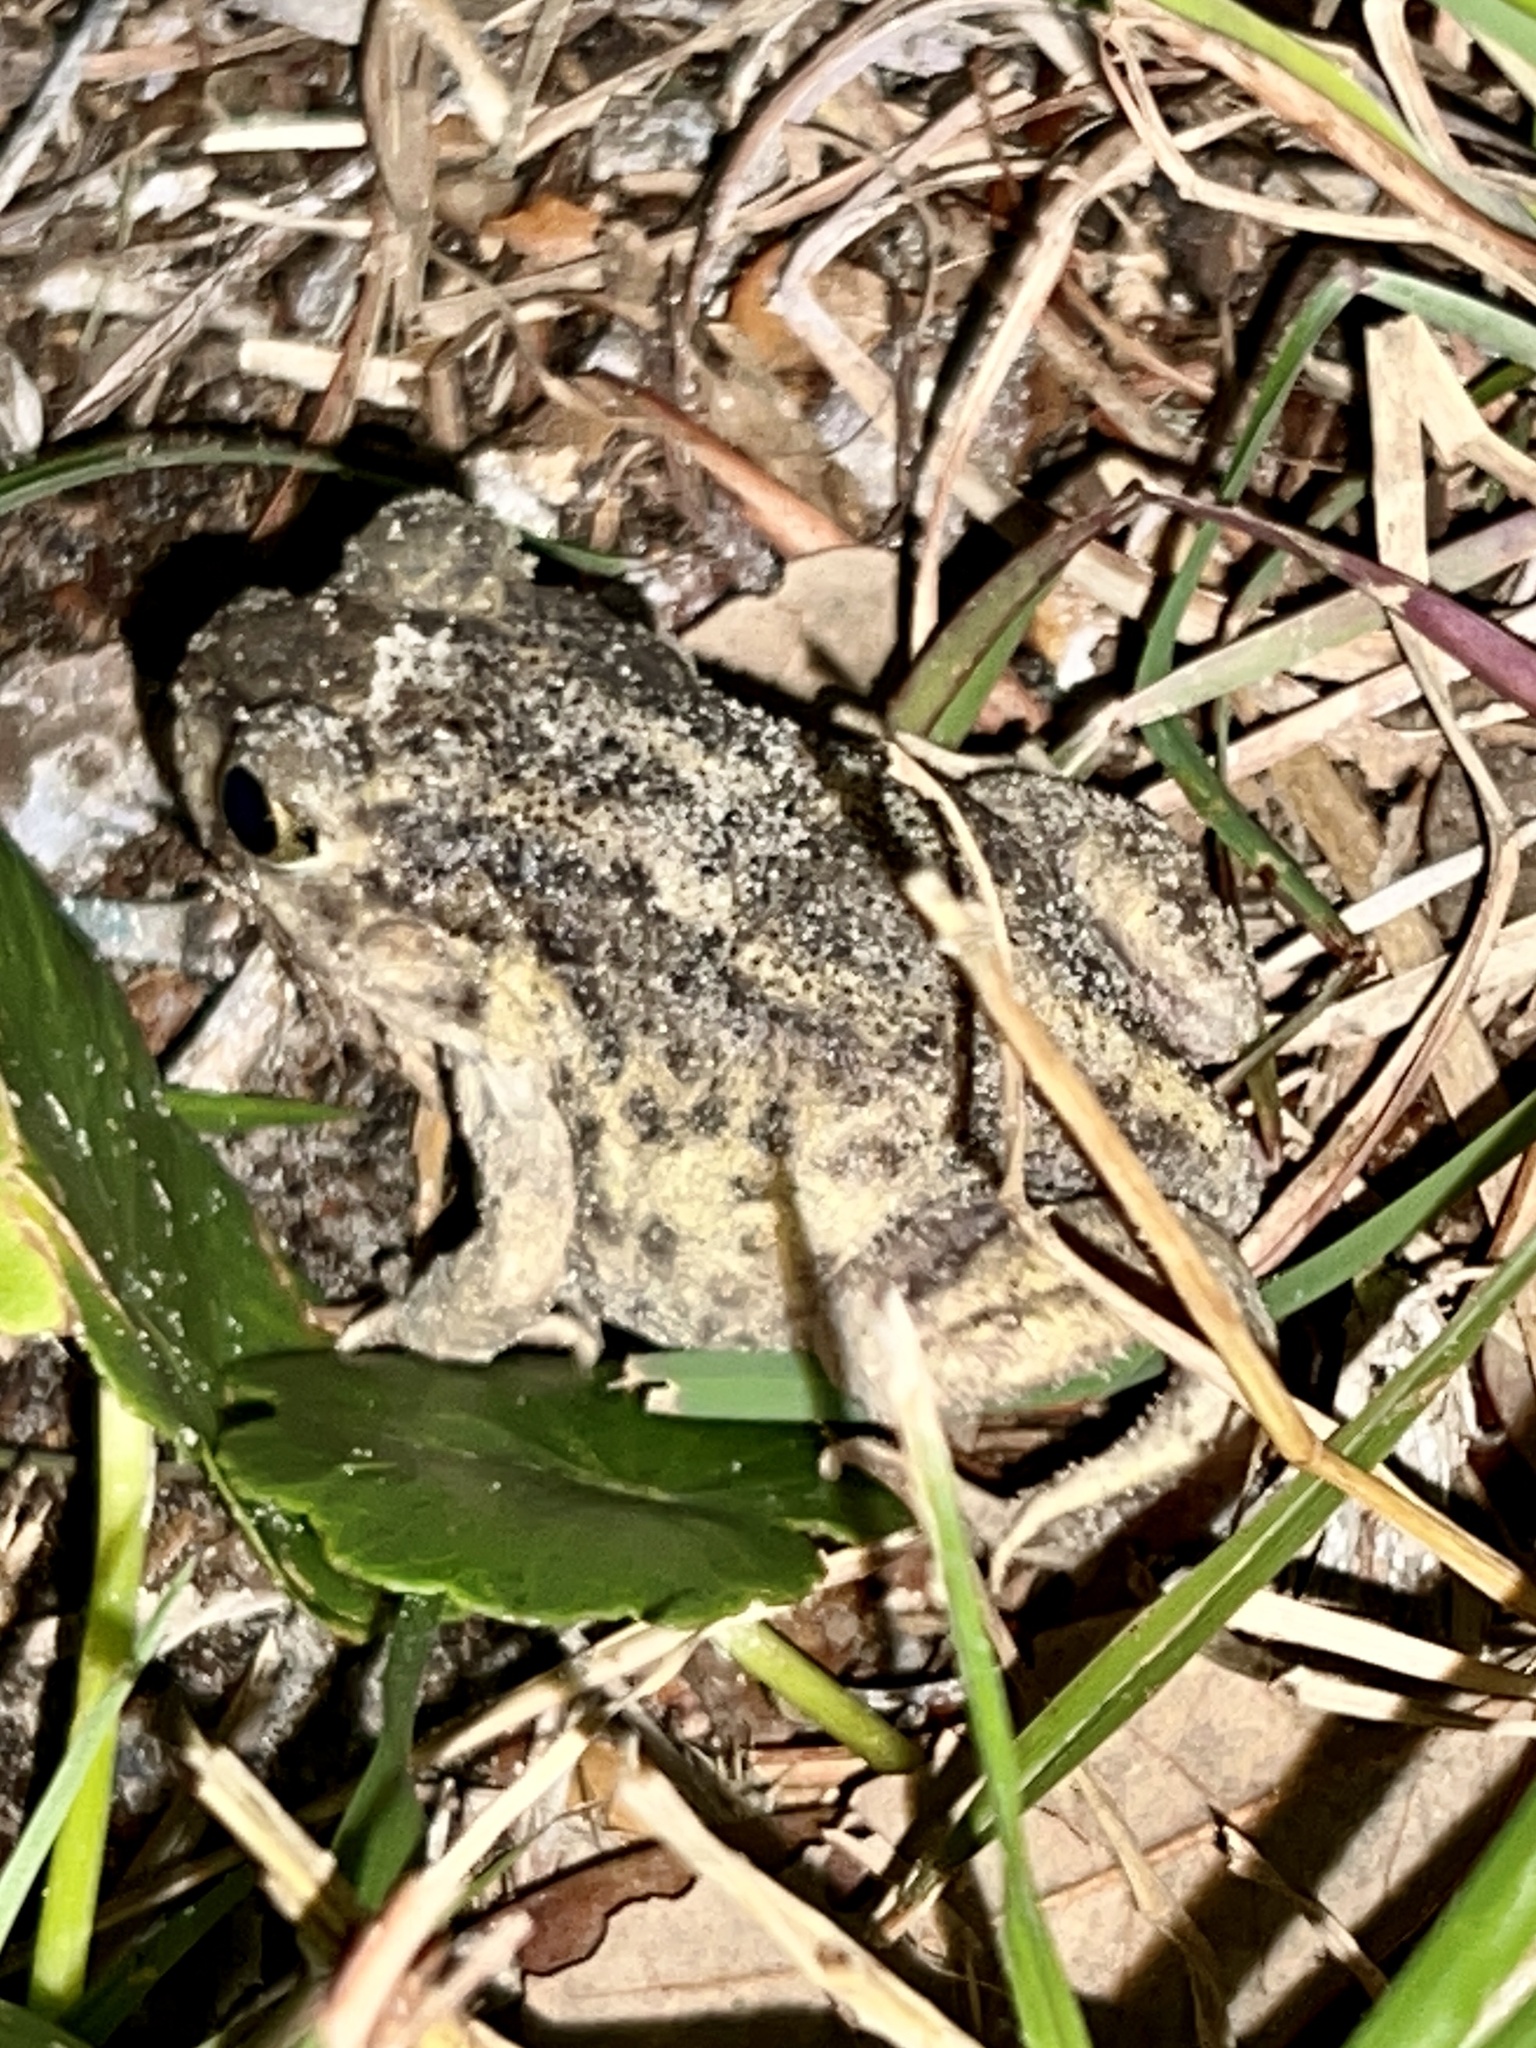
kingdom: Animalia
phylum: Chordata
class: Amphibia
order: Anura
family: Scaphiopodidae
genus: Scaphiopus
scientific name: Scaphiopus hurterii
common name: Hurter's spadefoot toad
